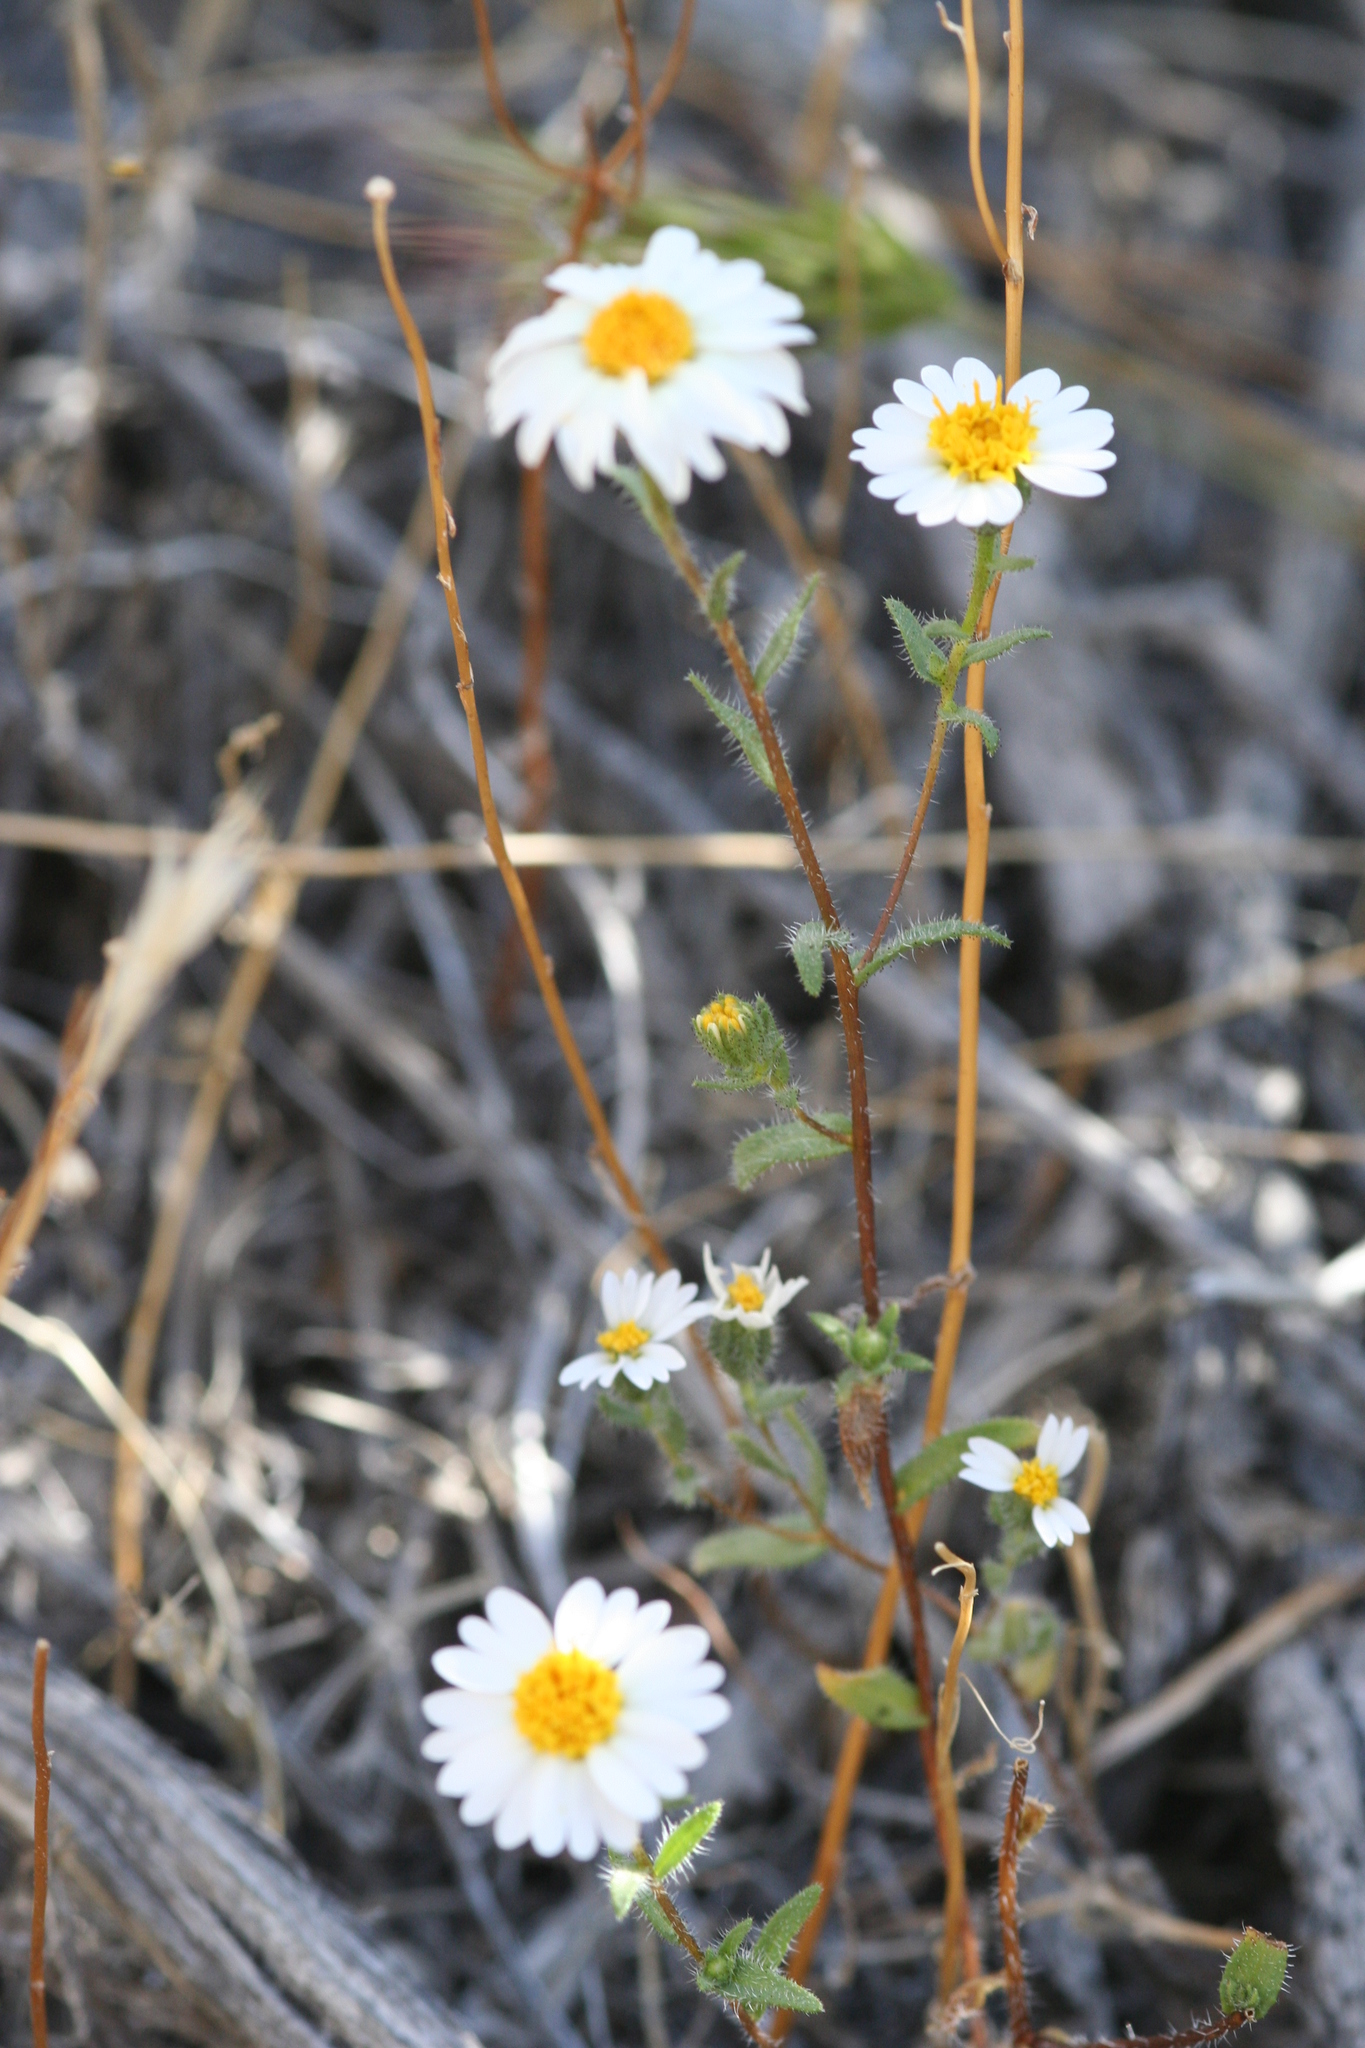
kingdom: Plantae
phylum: Tracheophyta
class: Magnoliopsida
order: Asterales
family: Asteraceae
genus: Layia
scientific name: Layia glandulosa
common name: White layia
